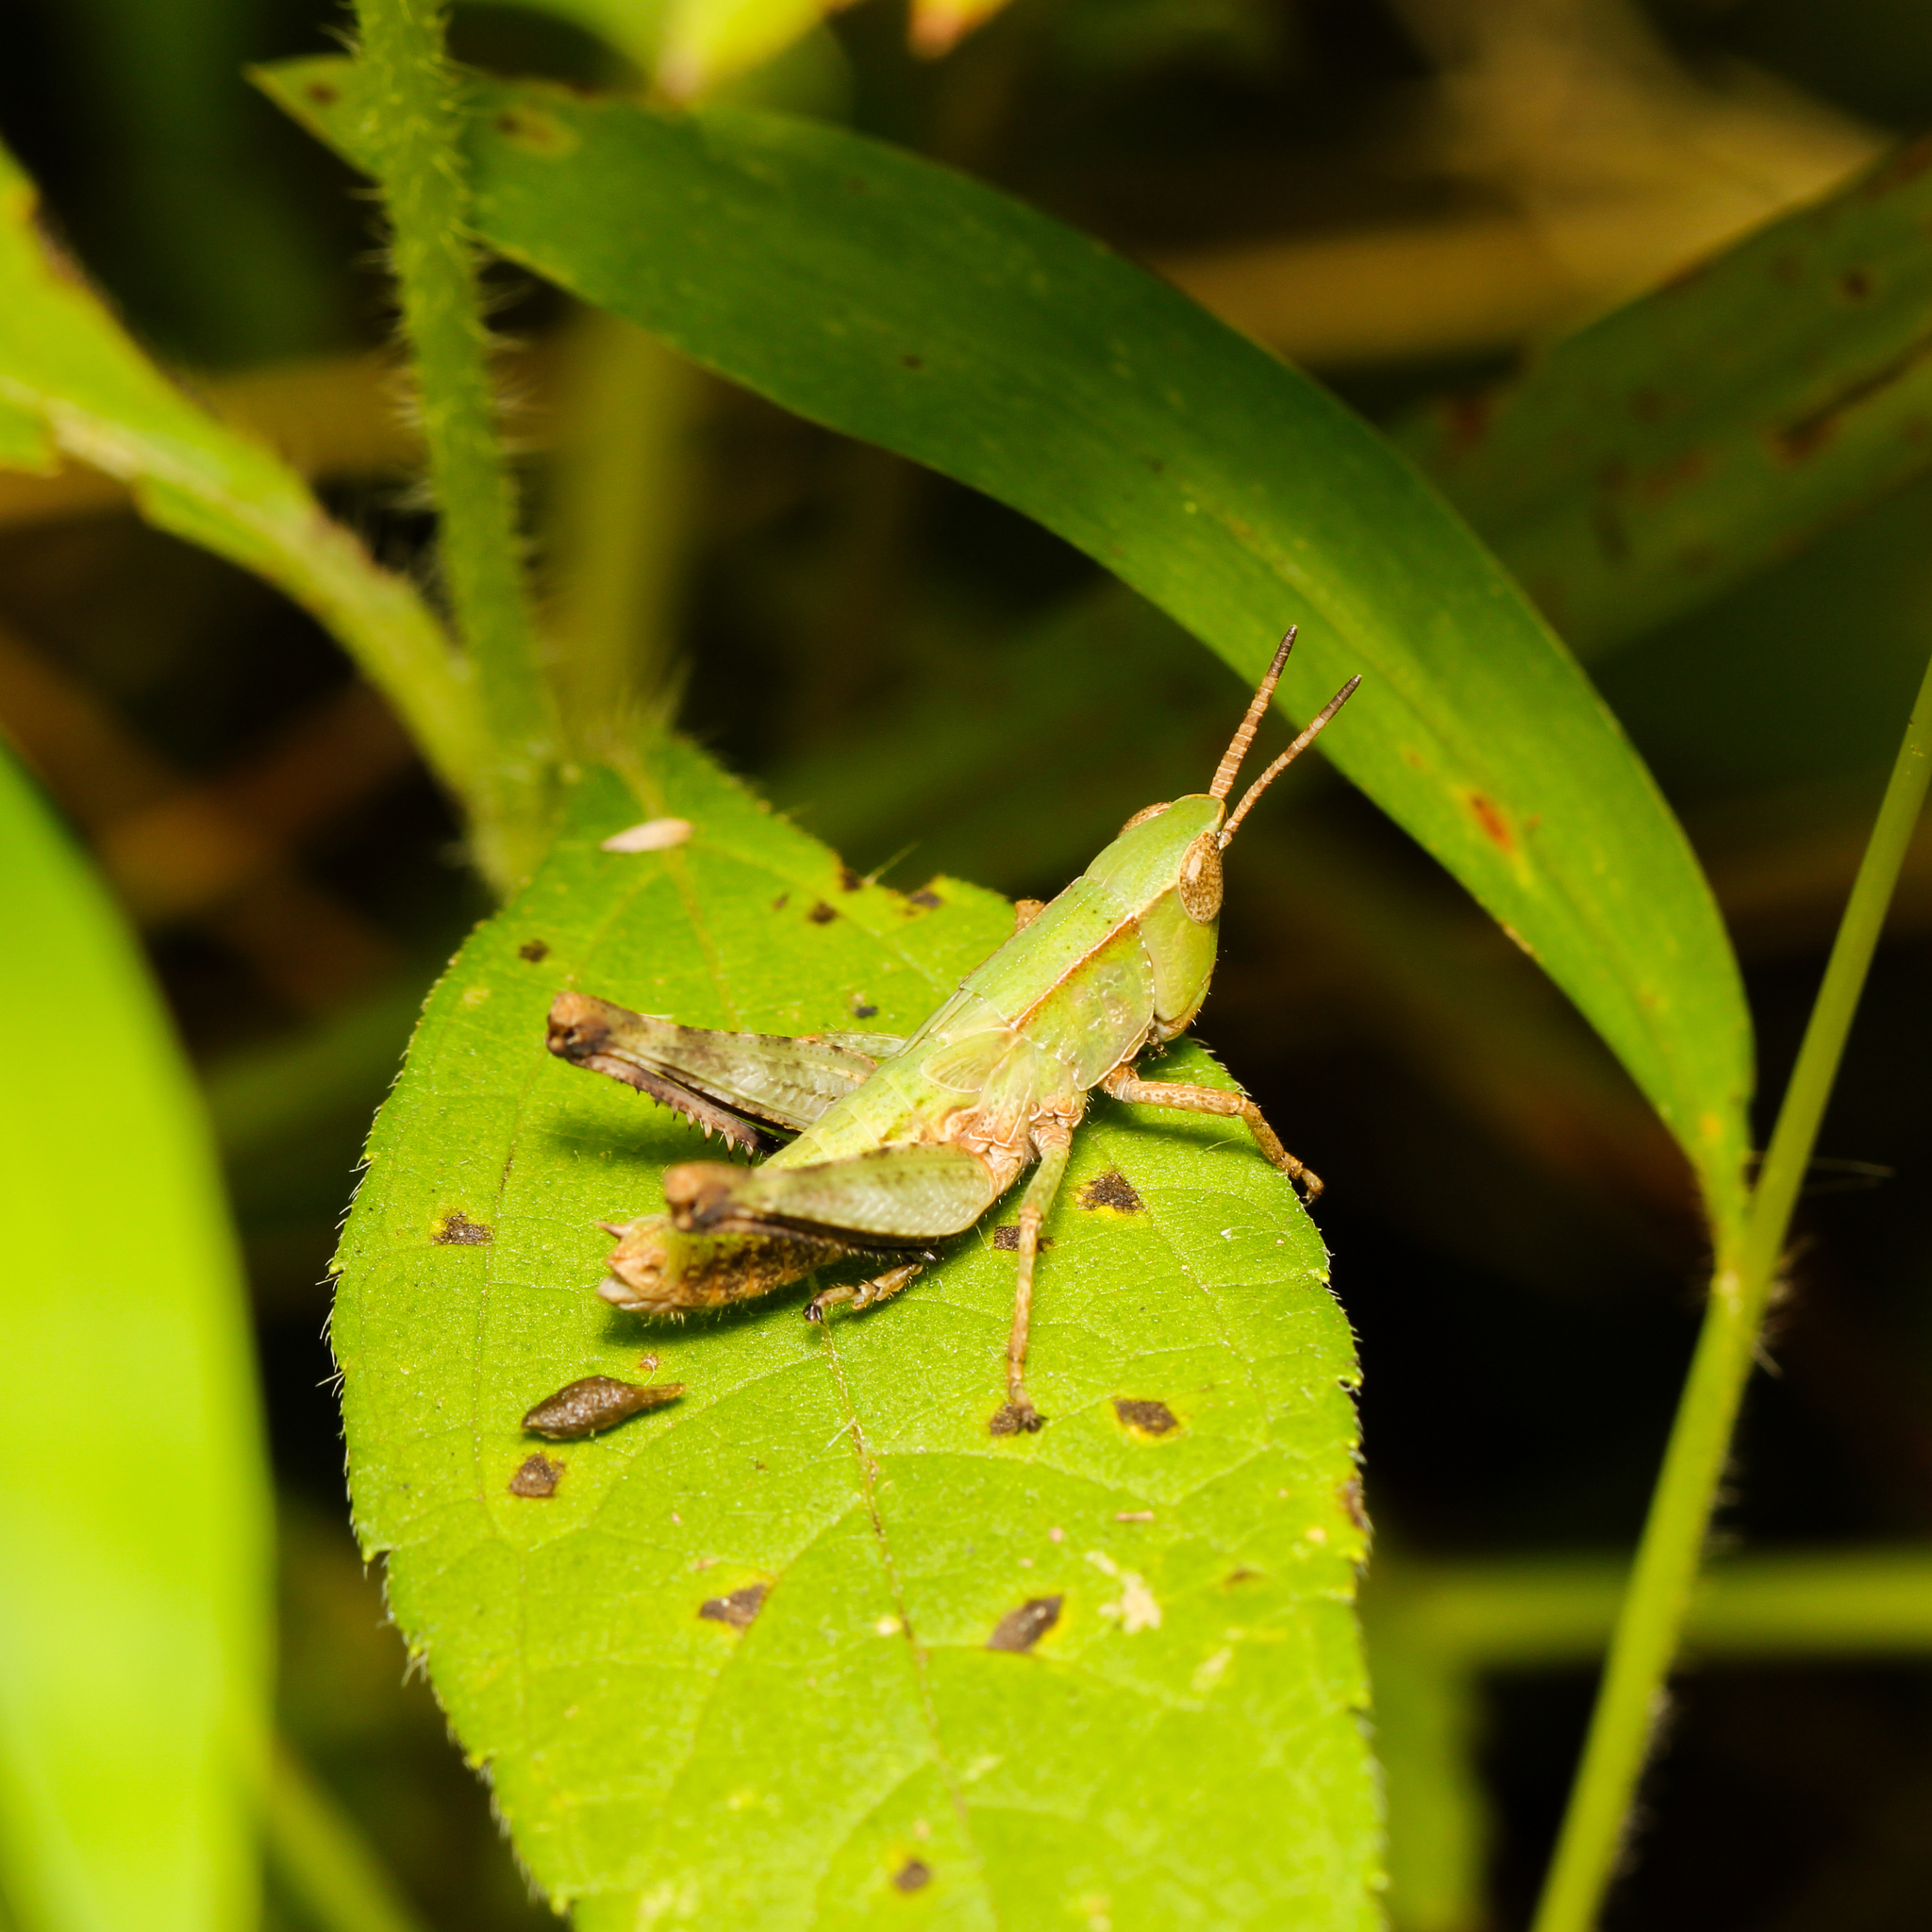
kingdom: Animalia
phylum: Arthropoda
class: Insecta
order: Orthoptera
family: Acrididae
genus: Dichromorpha
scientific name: Dichromorpha viridis
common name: Short-winged green grasshopper
